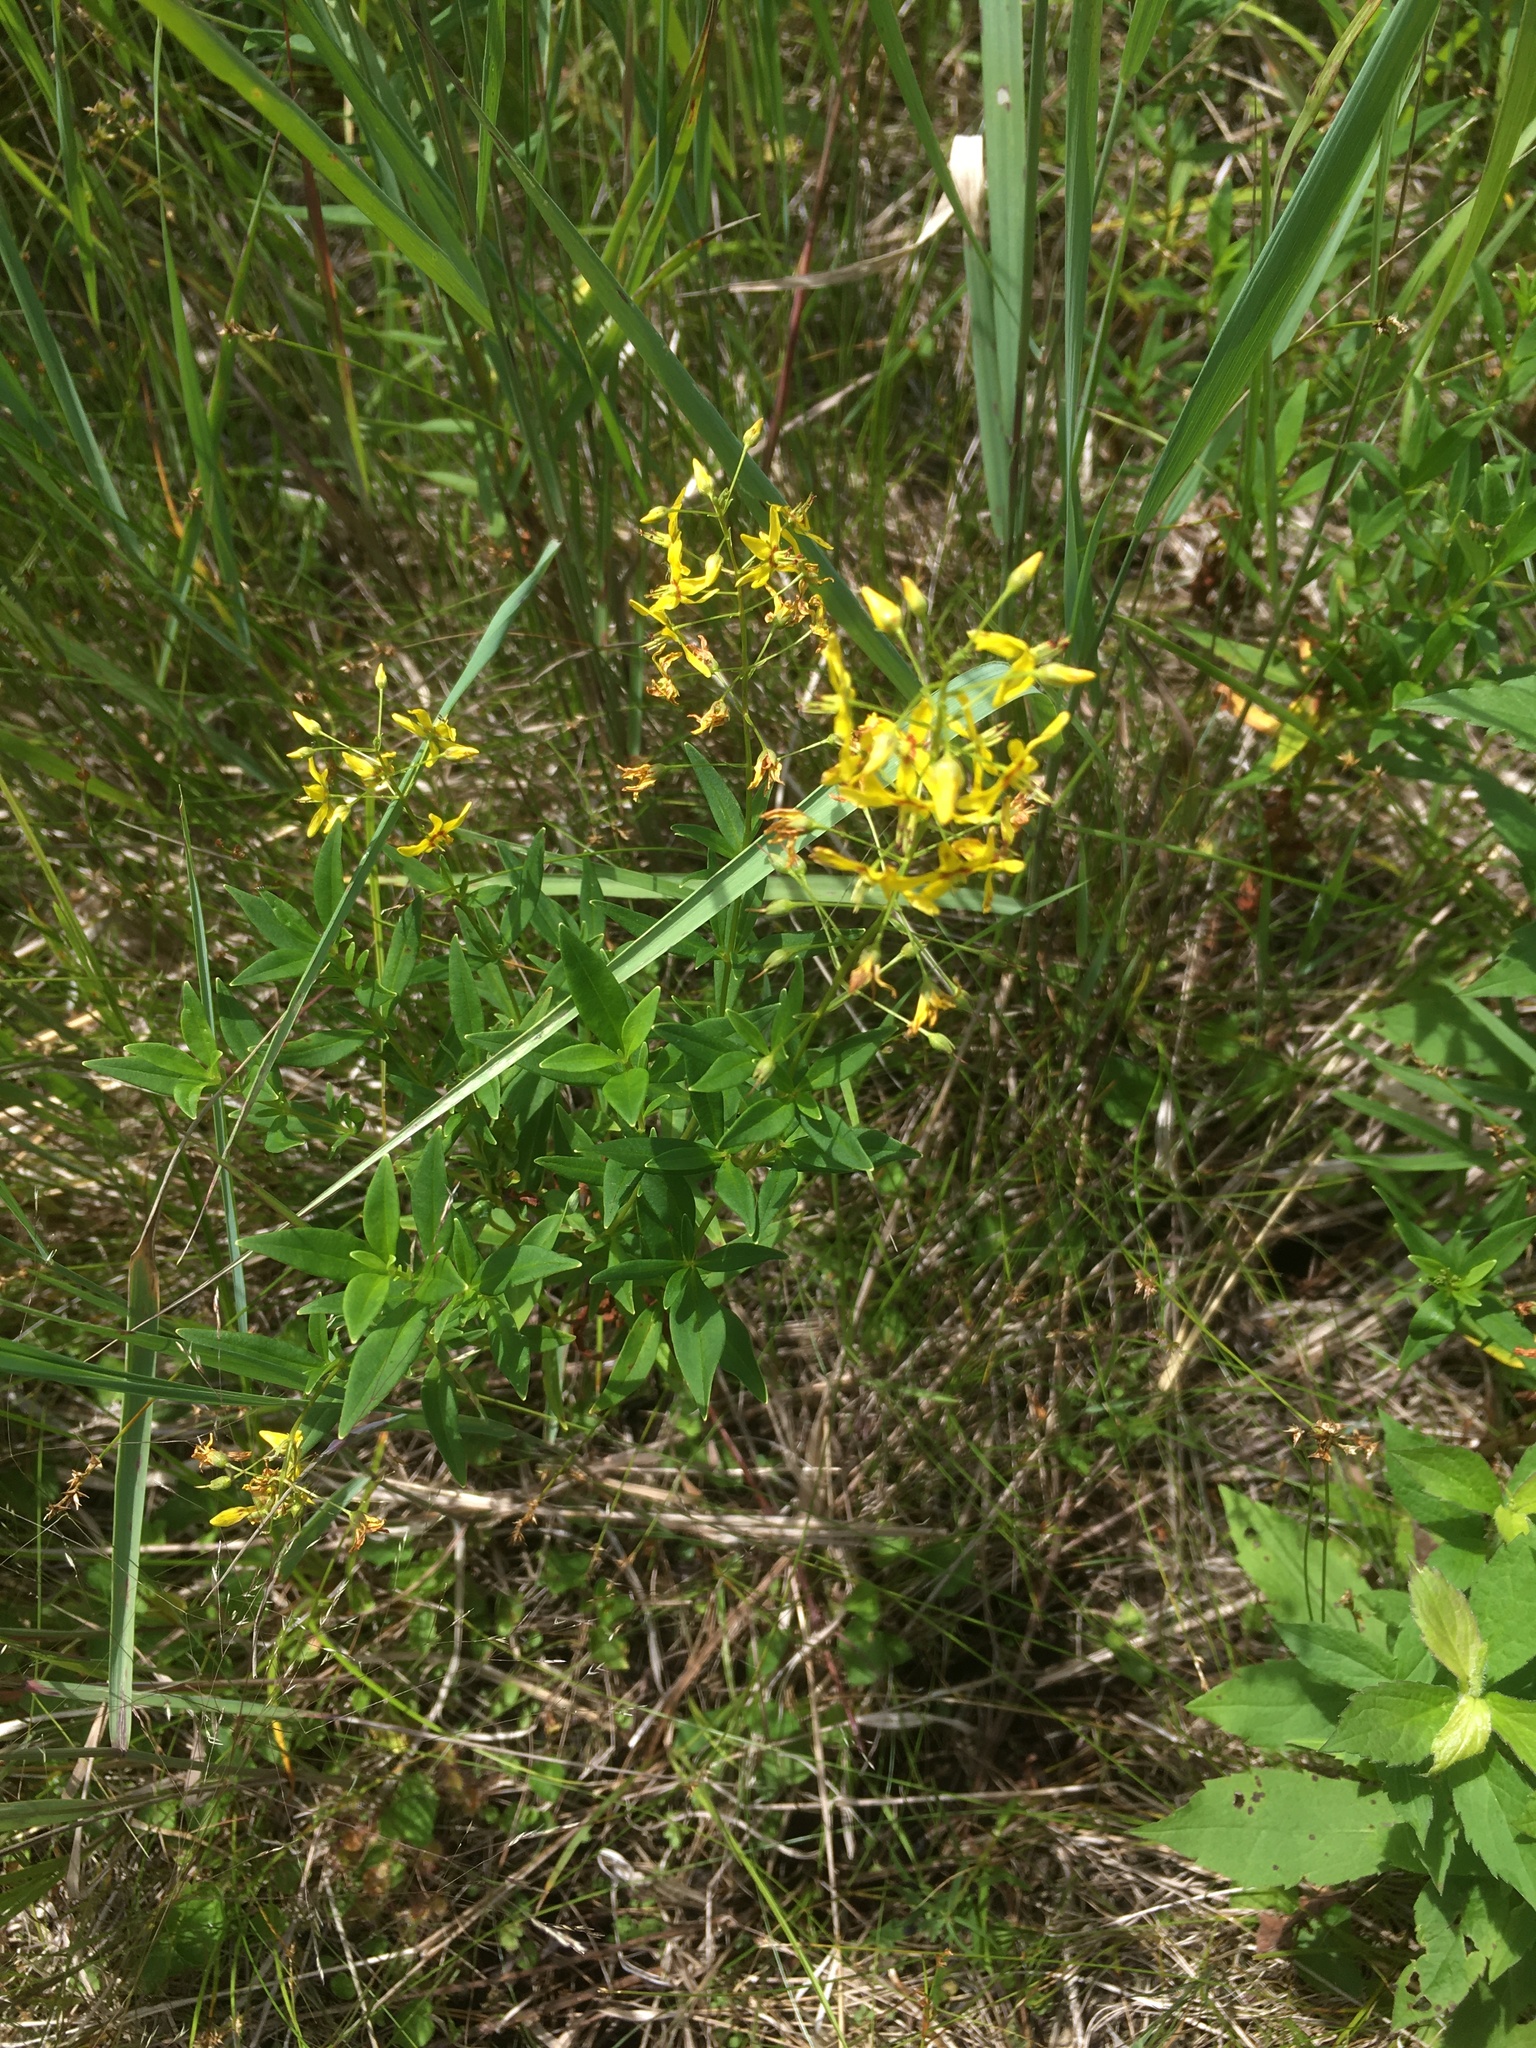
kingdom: Plantae
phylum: Tracheophyta
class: Magnoliopsida
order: Ericales
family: Primulaceae
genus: Lysimachia
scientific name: Lysimachia terrestris
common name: Lake loosestrife
